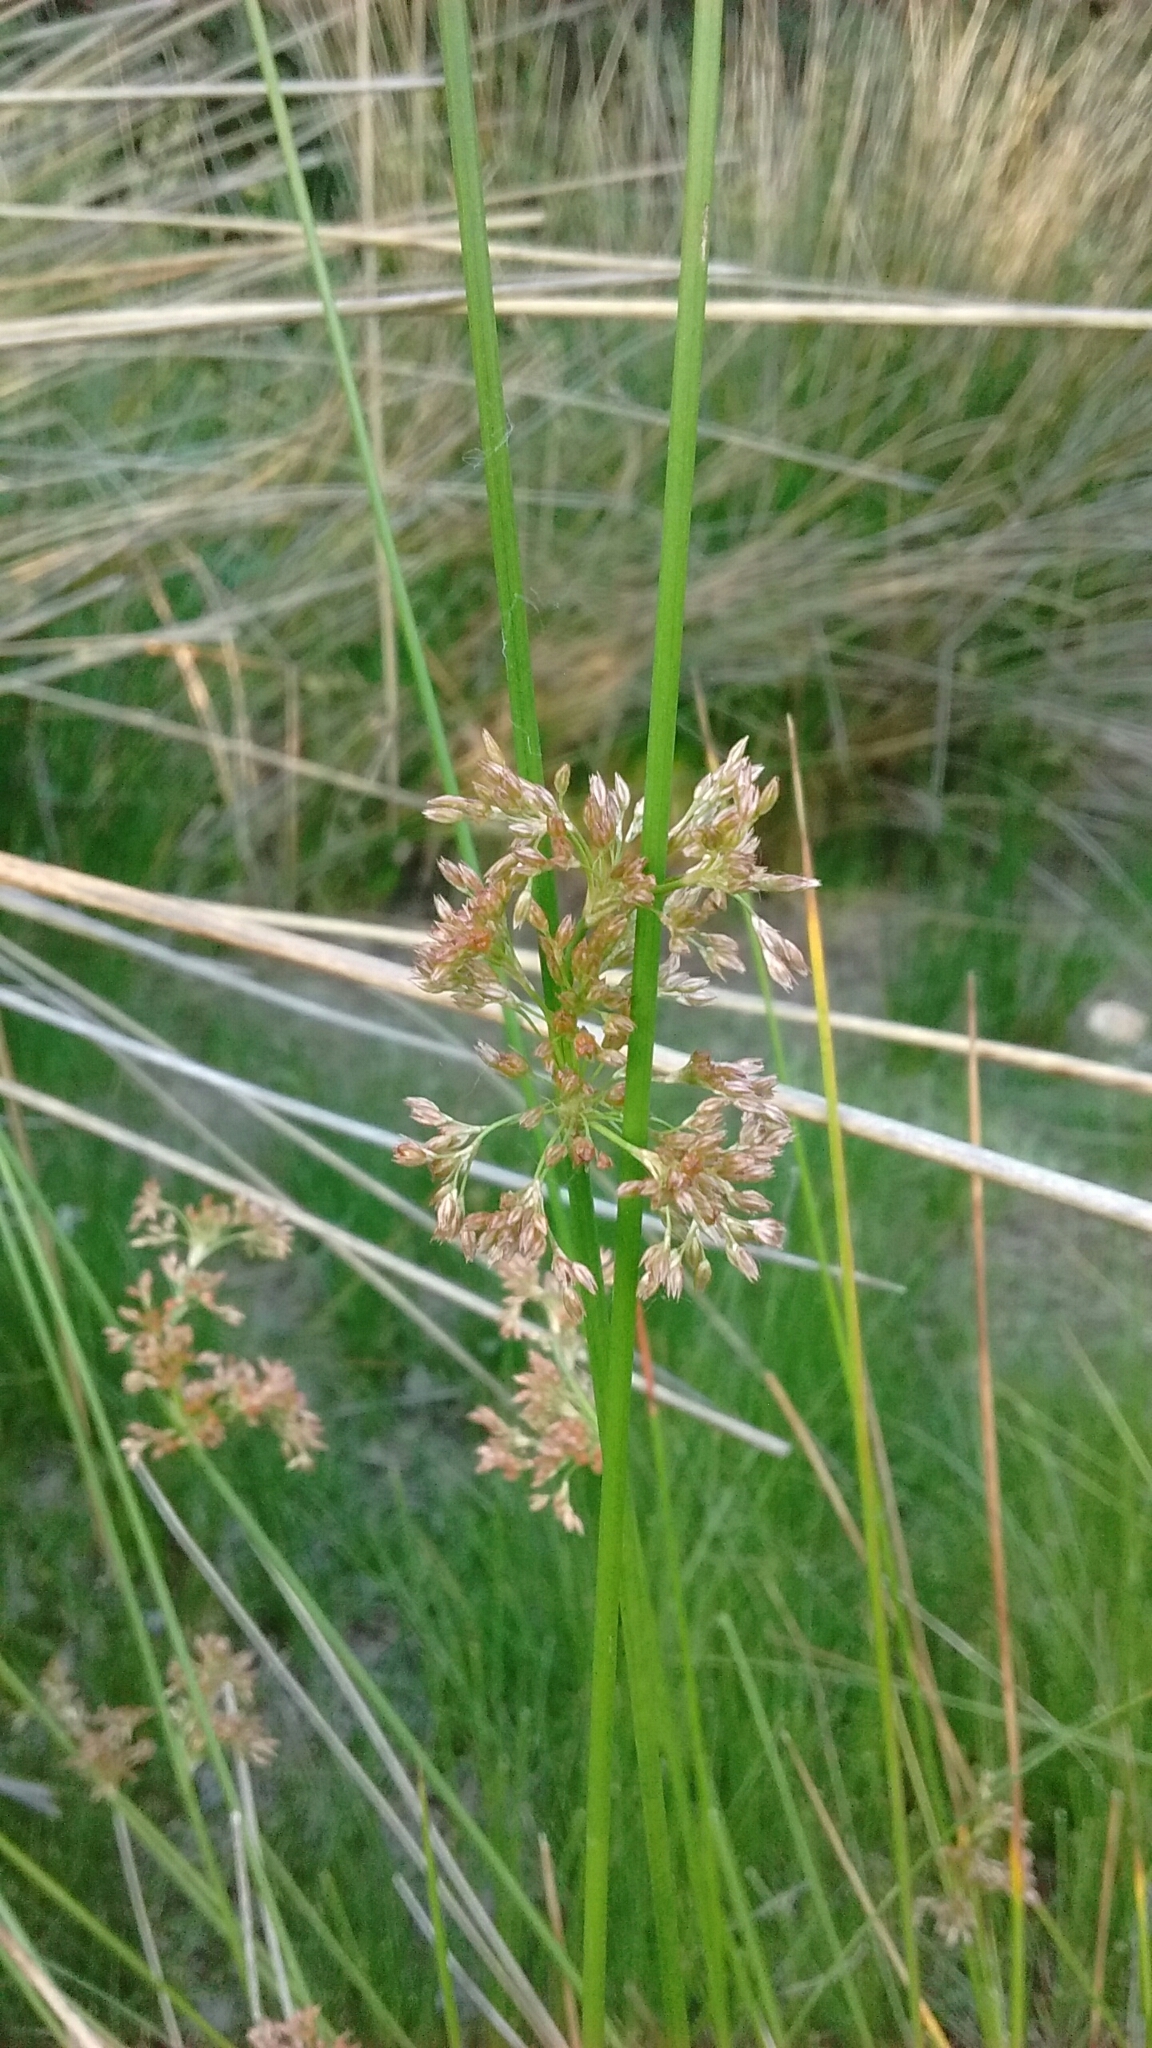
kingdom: Plantae
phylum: Tracheophyta
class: Liliopsida
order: Poales
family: Juncaceae
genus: Juncus
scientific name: Juncus effusus
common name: Soft rush
